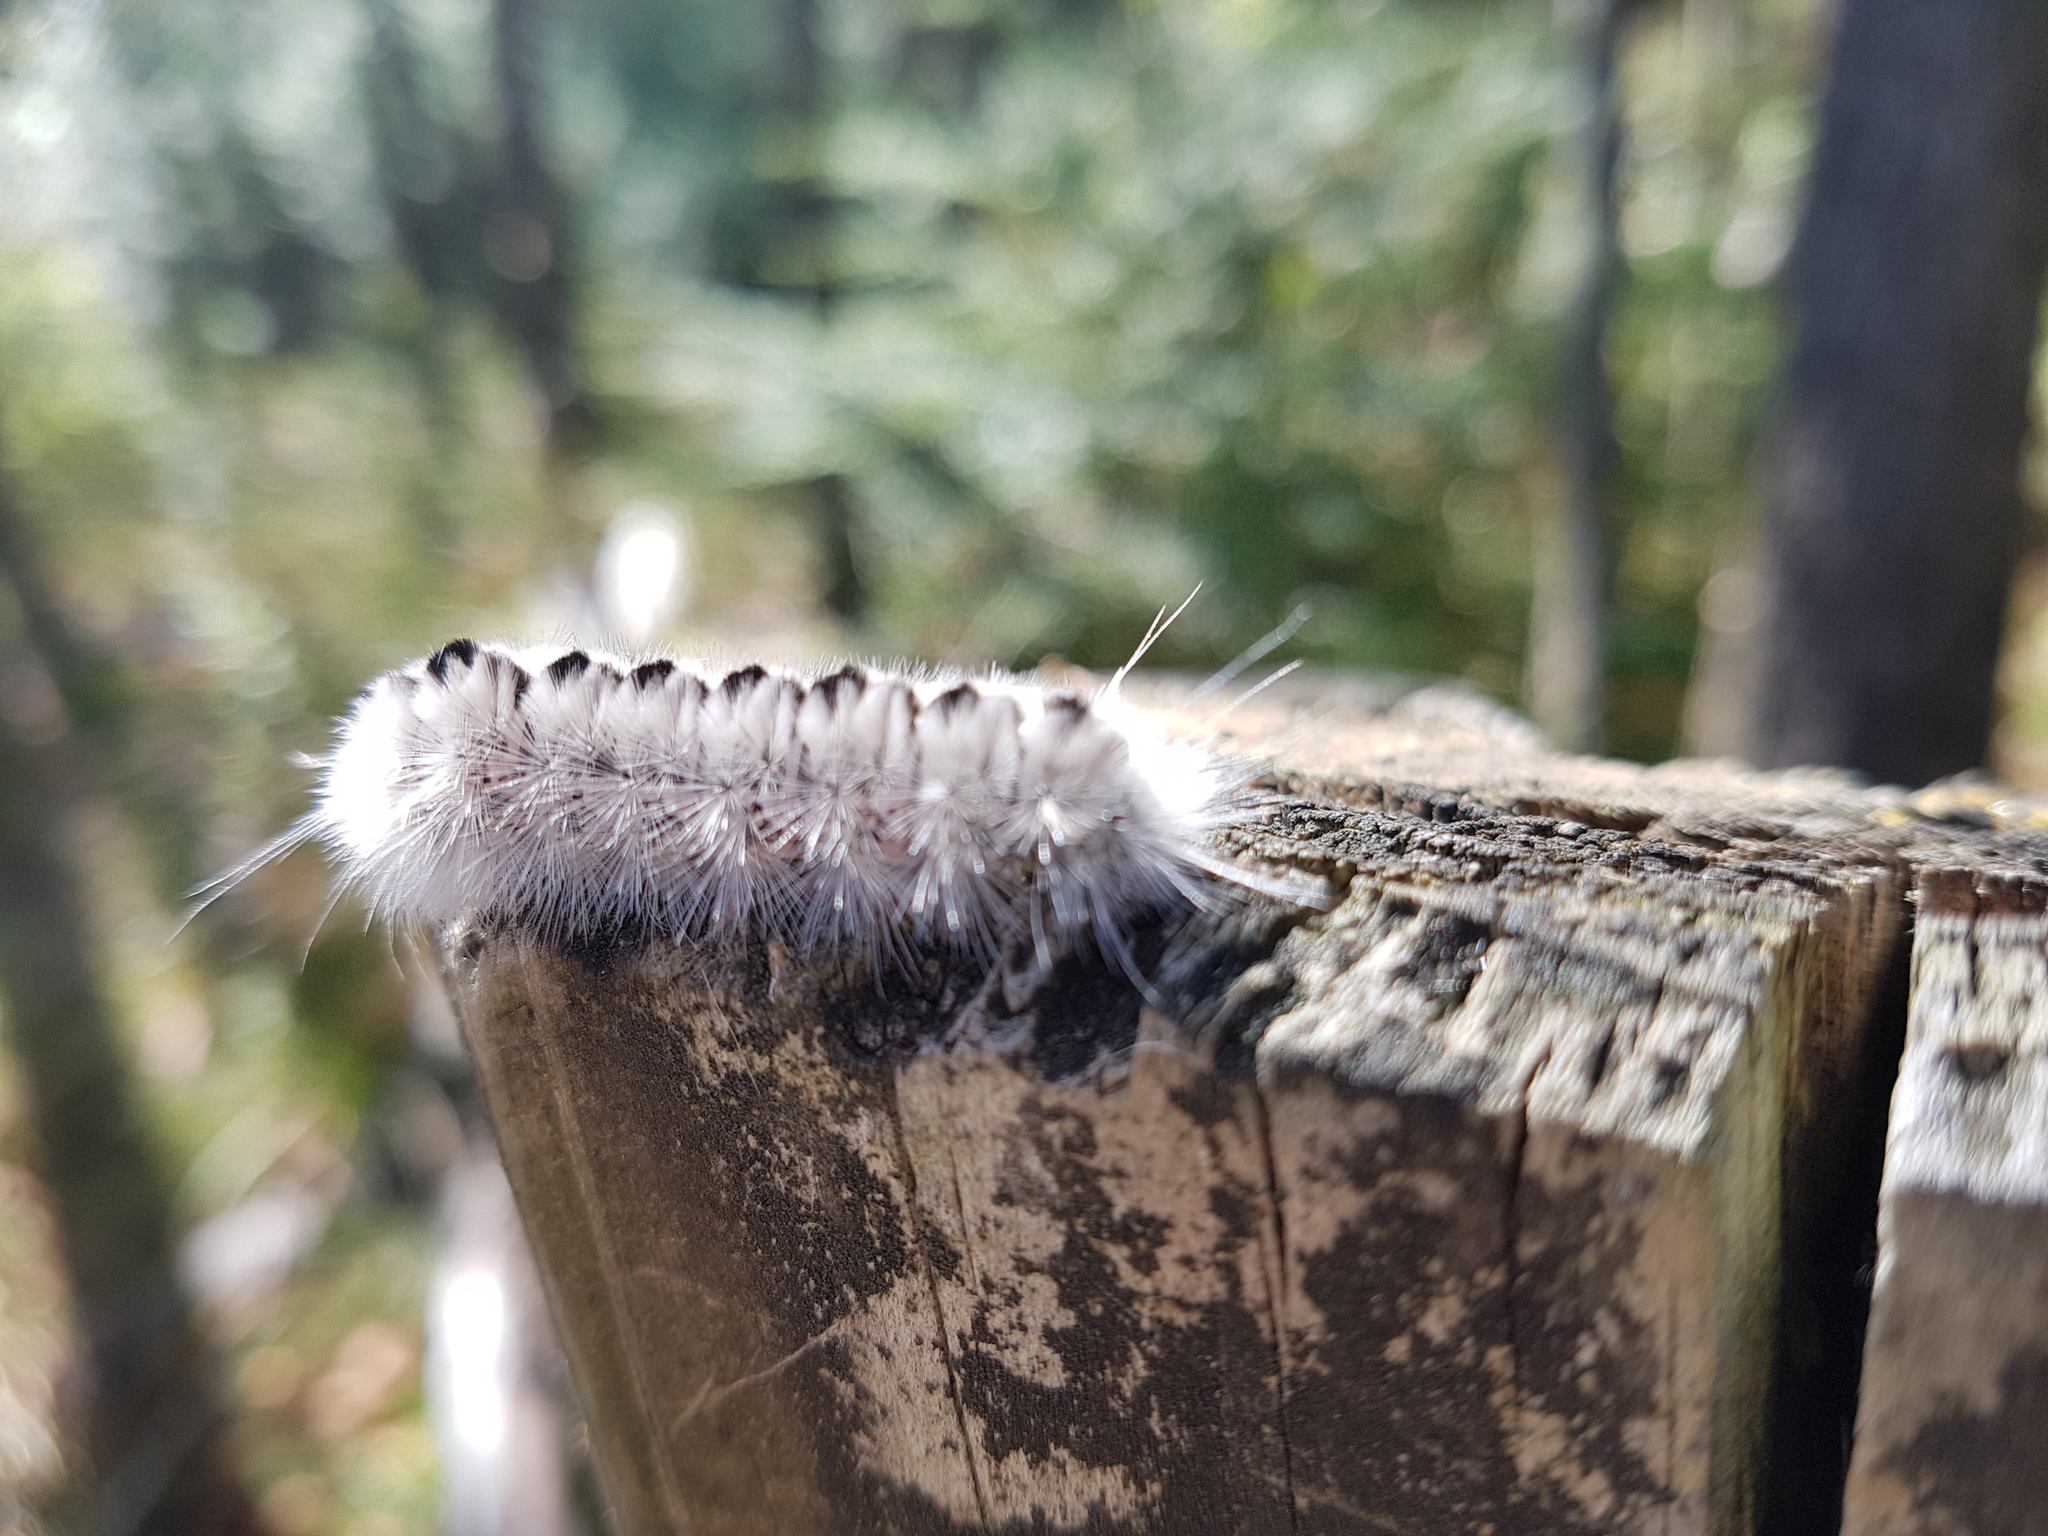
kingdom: Animalia
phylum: Arthropoda
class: Insecta
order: Lepidoptera
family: Erebidae
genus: Lophocampa
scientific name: Lophocampa caryae
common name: Hickory tussock moth
